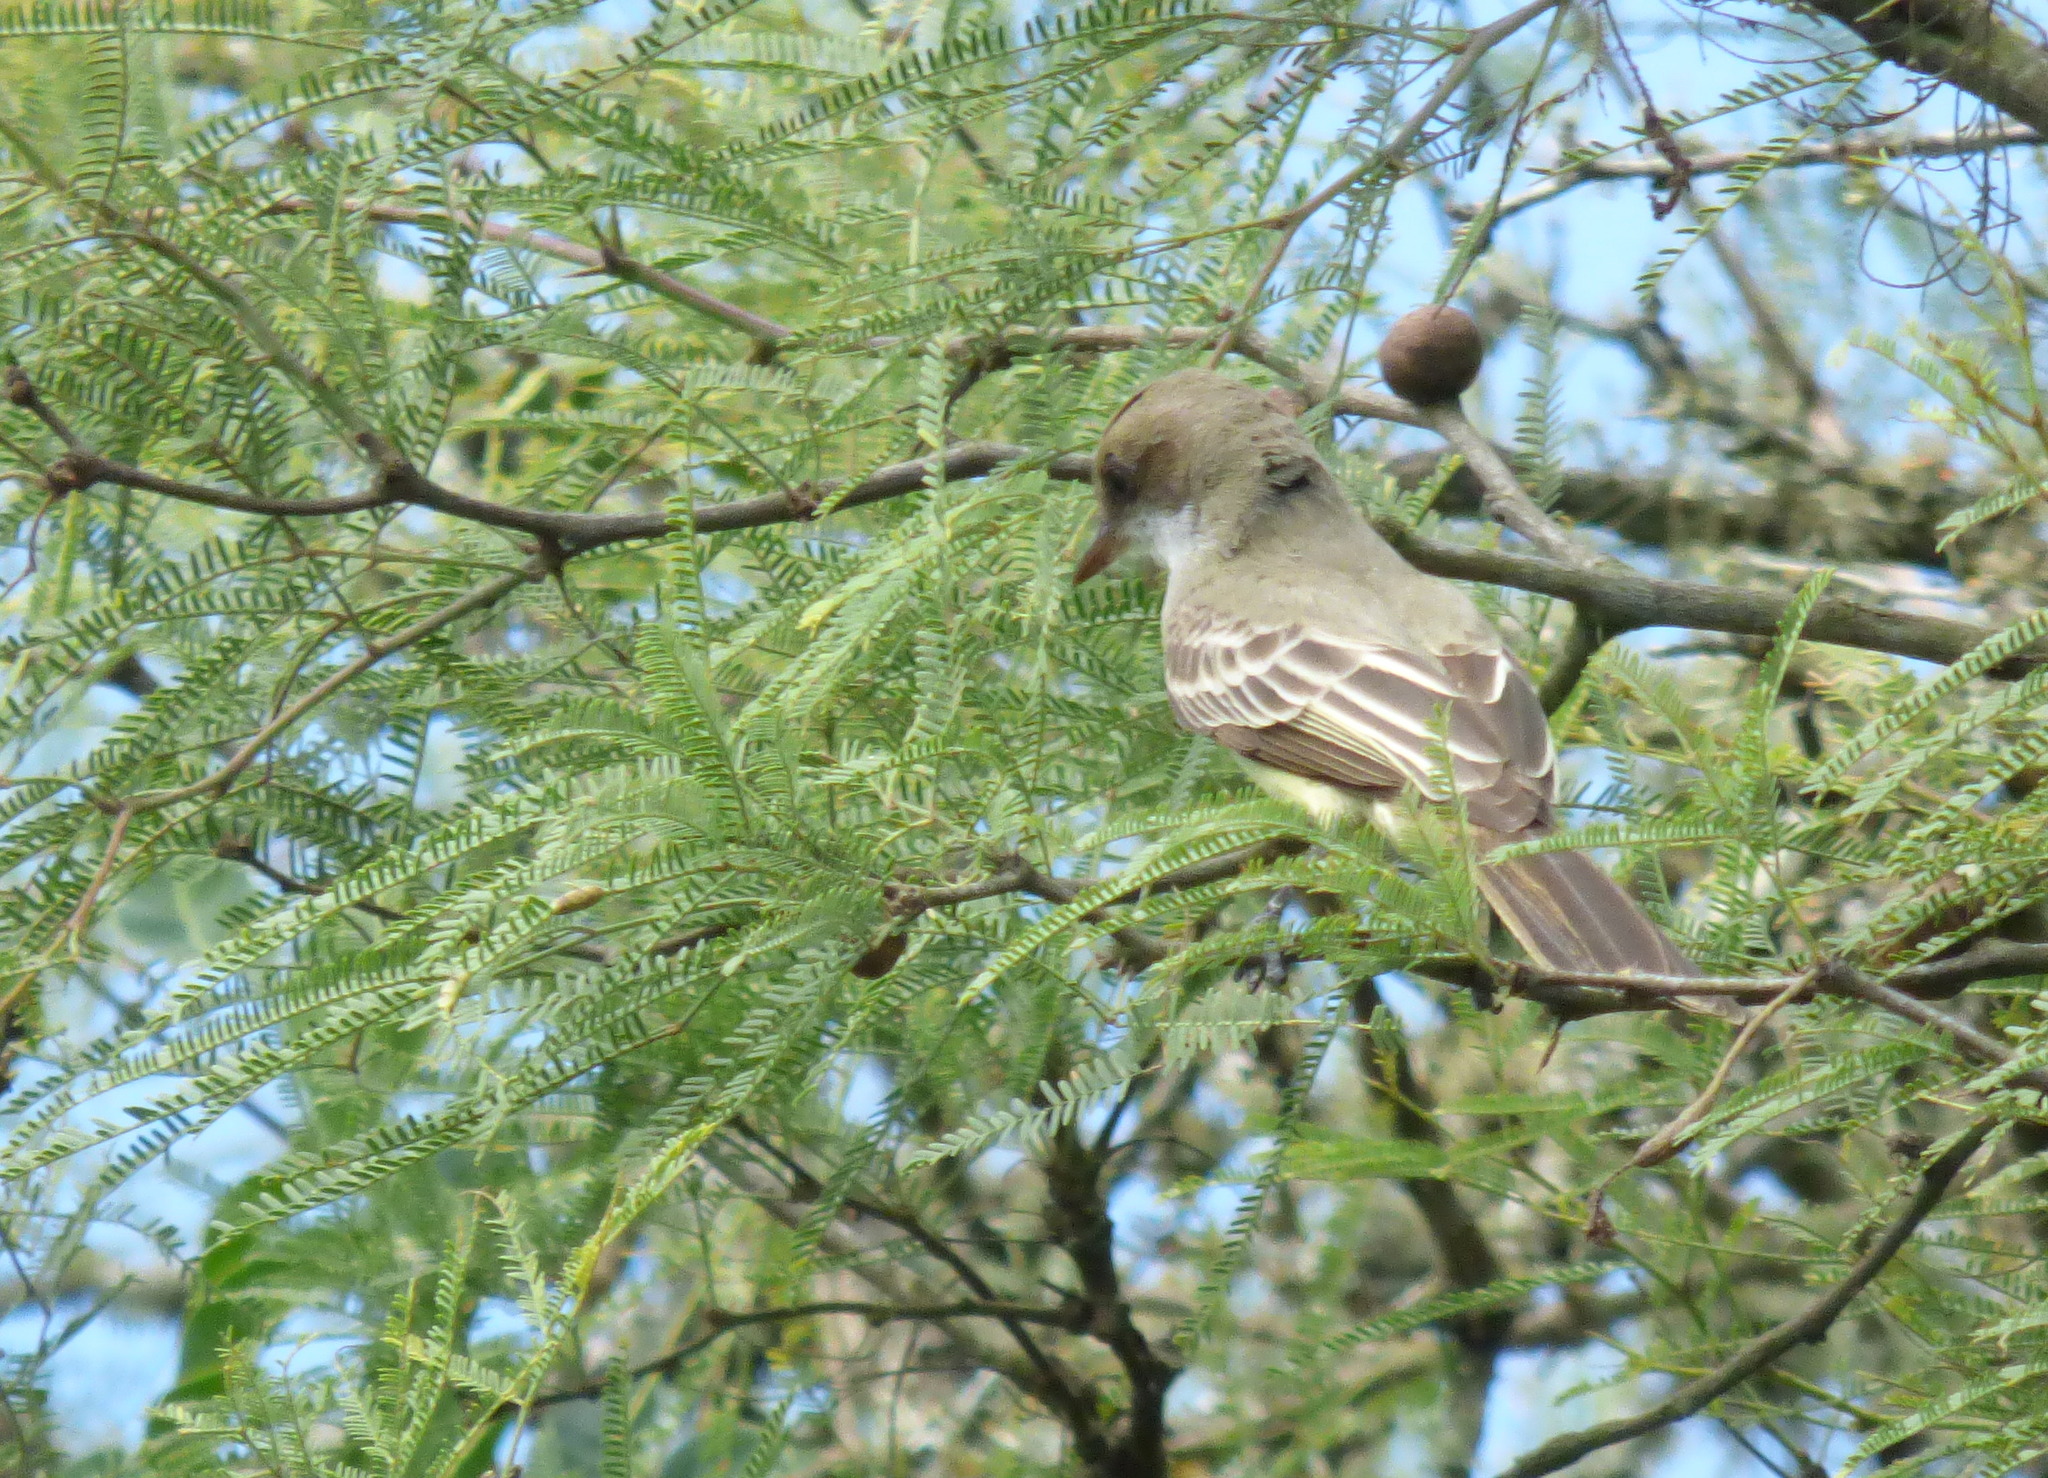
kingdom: Animalia
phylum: Chordata
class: Aves
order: Passeriformes
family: Tyrannidae
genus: Myiarchus
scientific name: Myiarchus swainsoni
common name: Swainson's flycatcher
